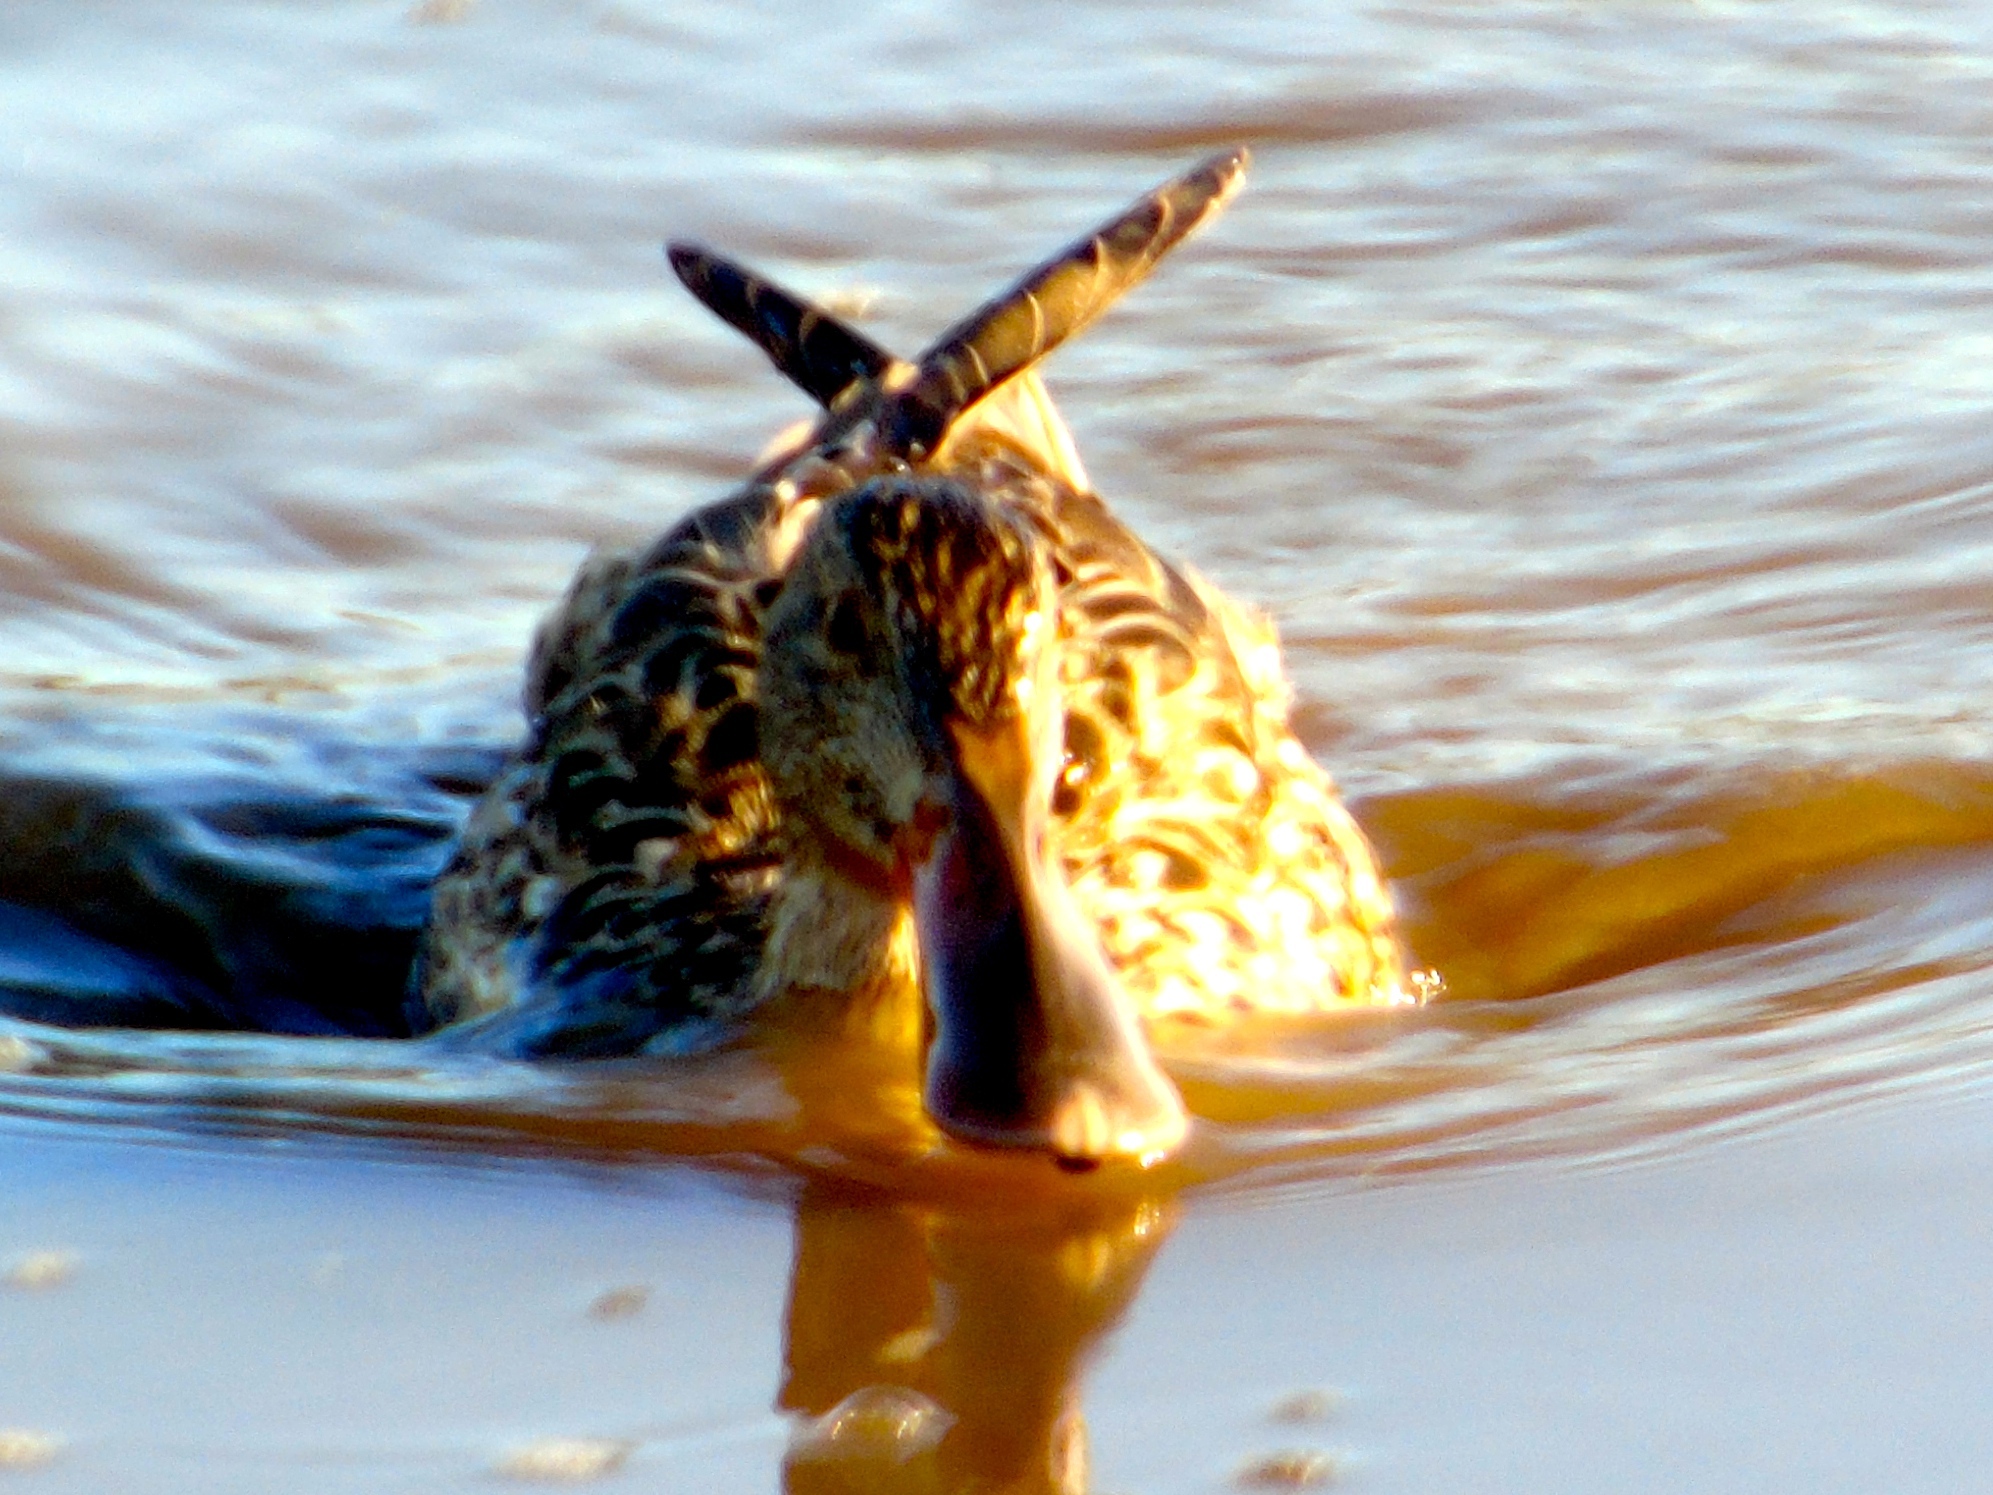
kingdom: Animalia
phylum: Chordata
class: Aves
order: Anseriformes
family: Anatidae
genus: Spatula
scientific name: Spatula clypeata
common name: Northern shoveler
